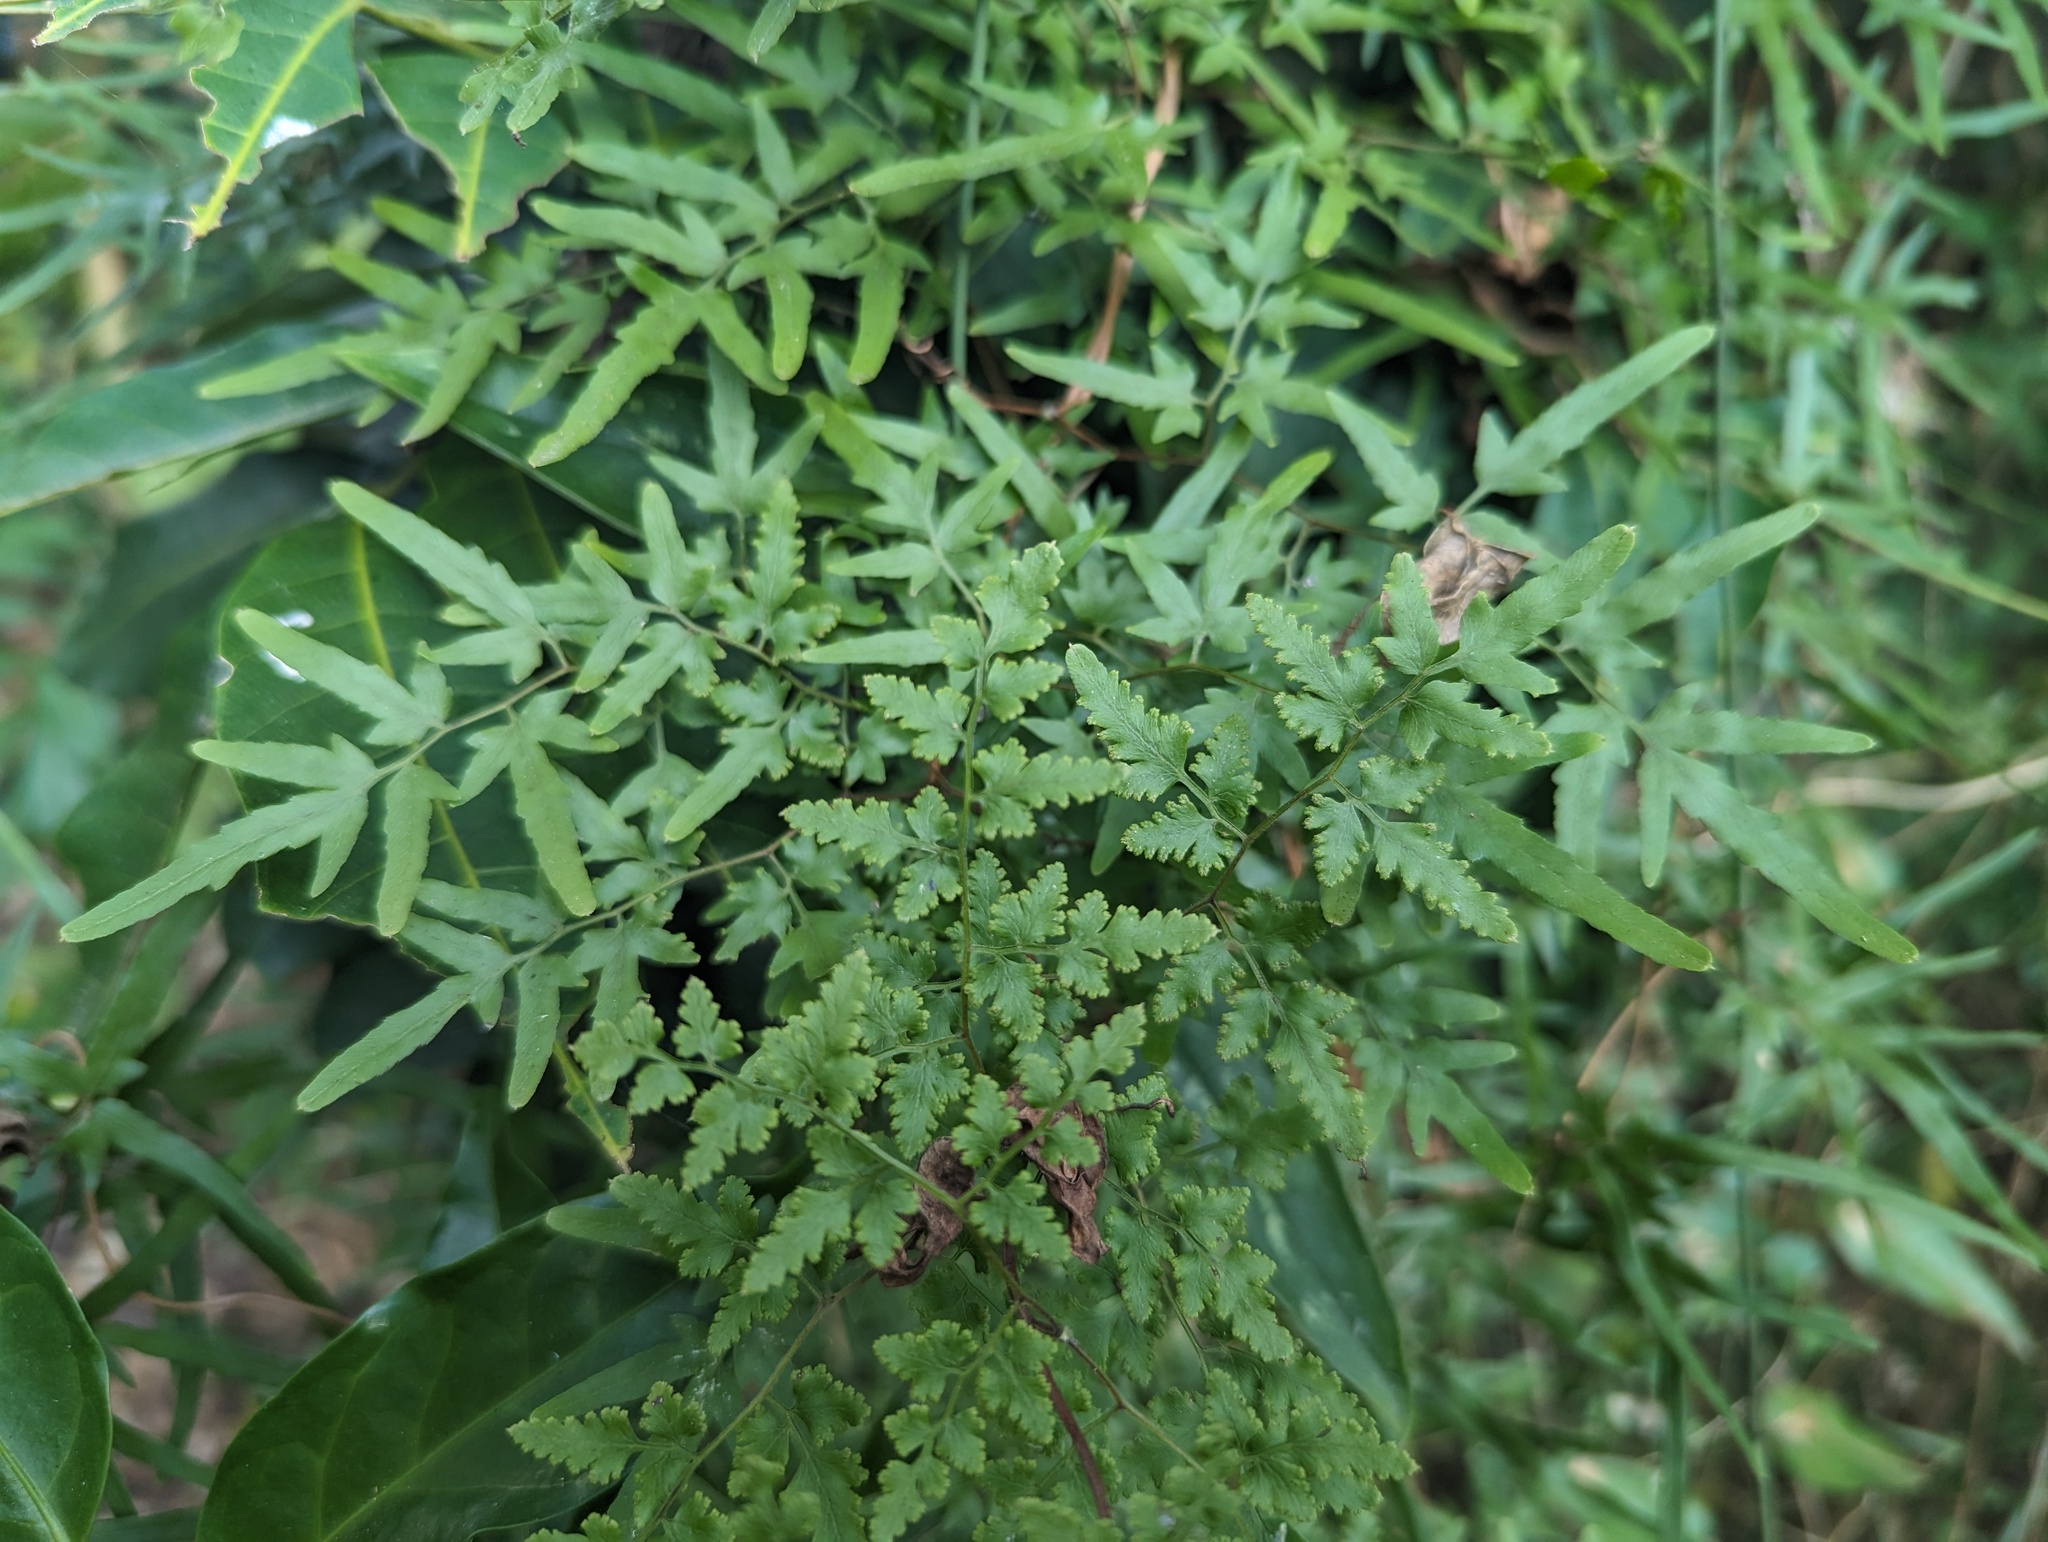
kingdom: Plantae
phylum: Tracheophyta
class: Polypodiopsida
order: Schizaeales
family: Lygodiaceae
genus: Lygodium
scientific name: Lygodium japonicum
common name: Japanese climbing fern
